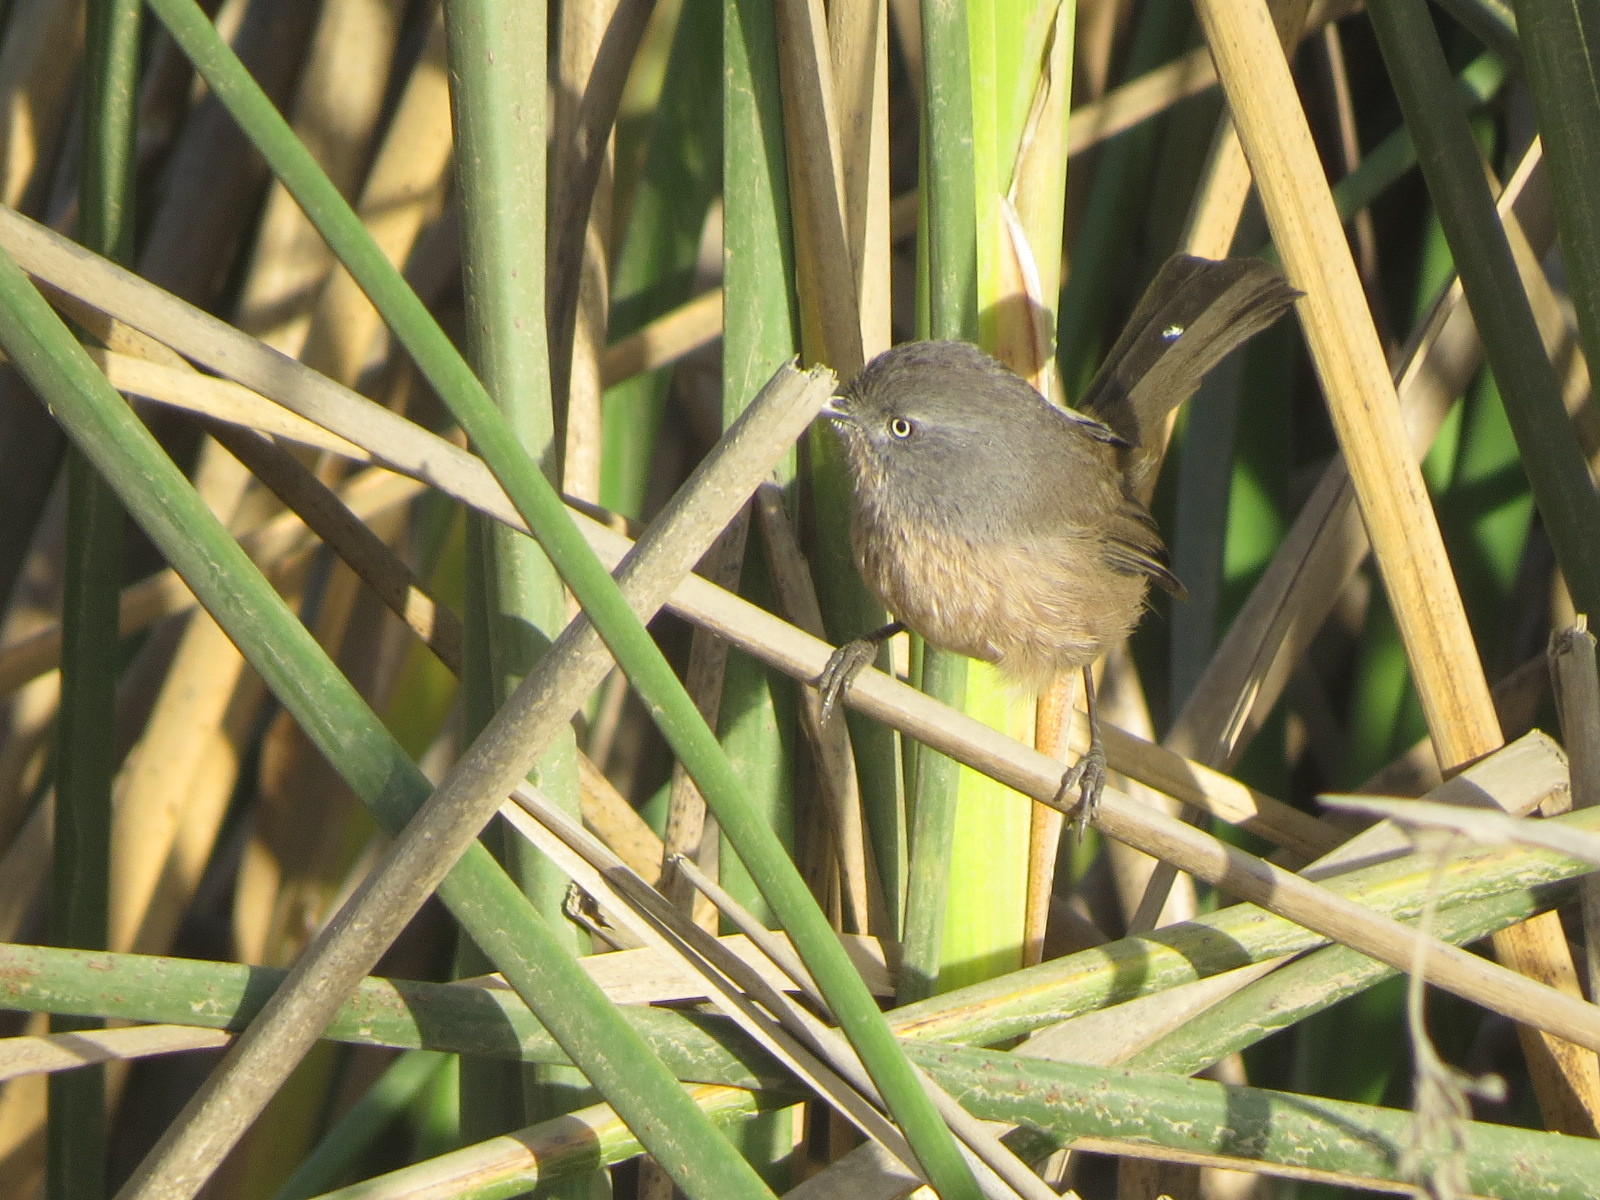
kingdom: Animalia
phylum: Chordata
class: Aves
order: Passeriformes
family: Sylviidae
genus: Chamaea
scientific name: Chamaea fasciata
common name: Wrentit
